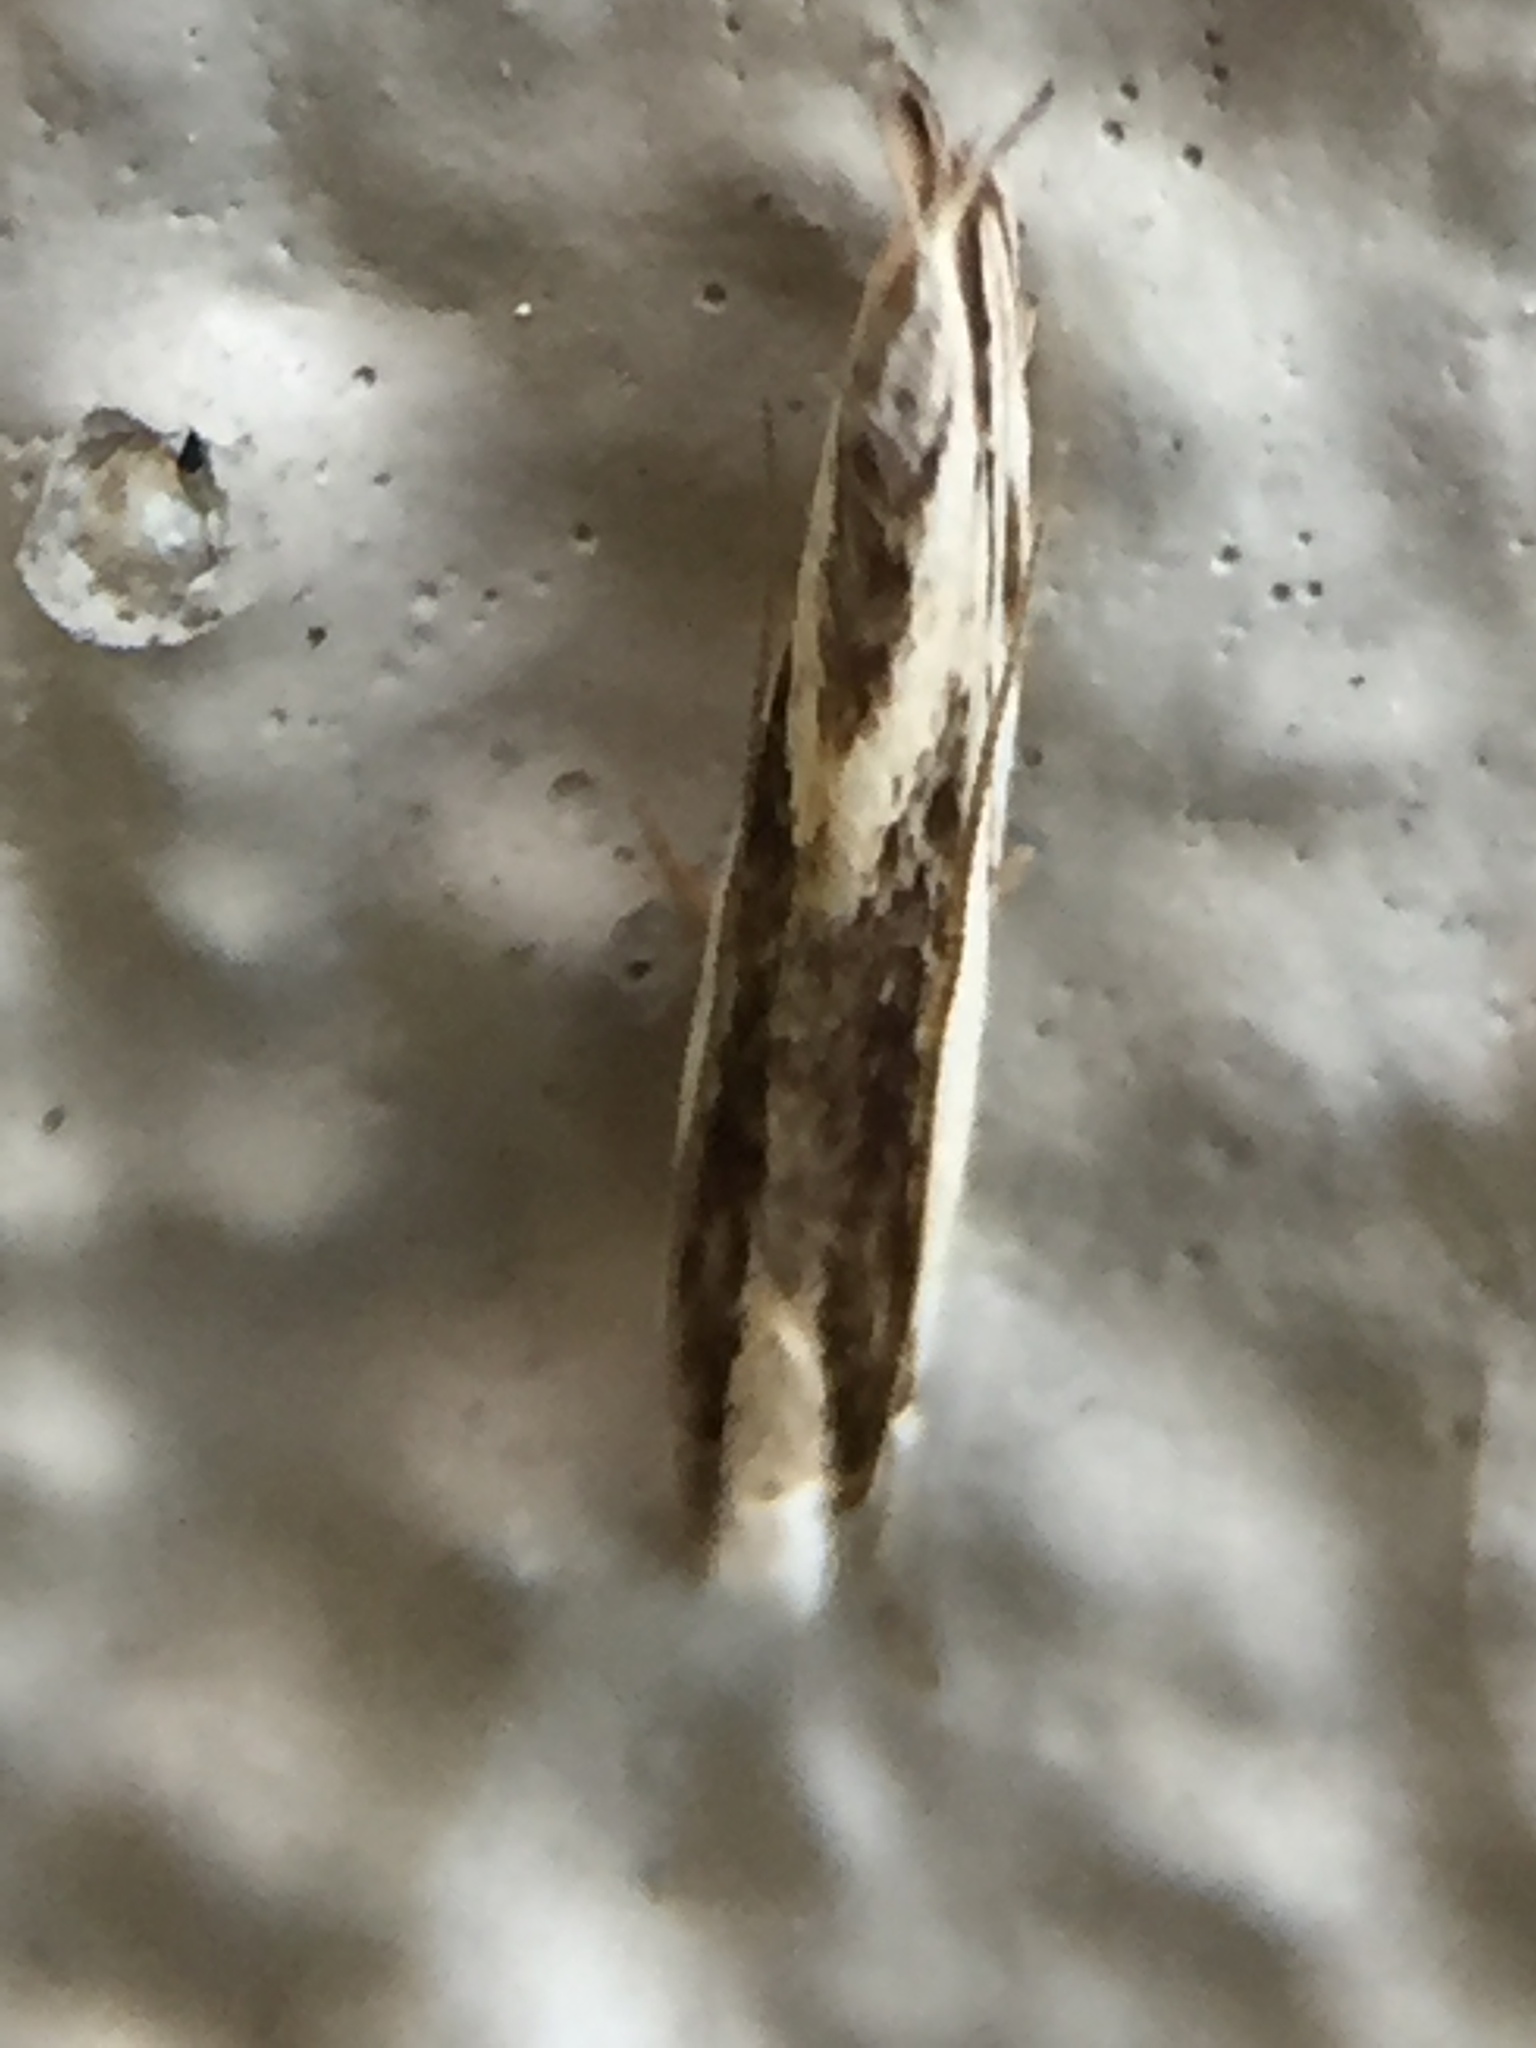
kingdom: Animalia
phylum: Arthropoda
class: Insecta
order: Lepidoptera
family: Tineidae
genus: Erechthias
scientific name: Erechthias chasmatias
